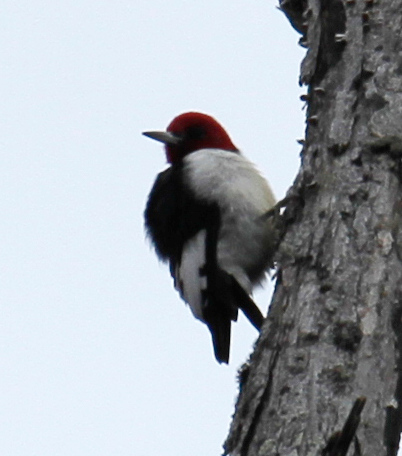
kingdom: Animalia
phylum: Chordata
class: Aves
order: Piciformes
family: Picidae
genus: Melanerpes
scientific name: Melanerpes erythrocephalus
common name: Red-headed woodpecker
